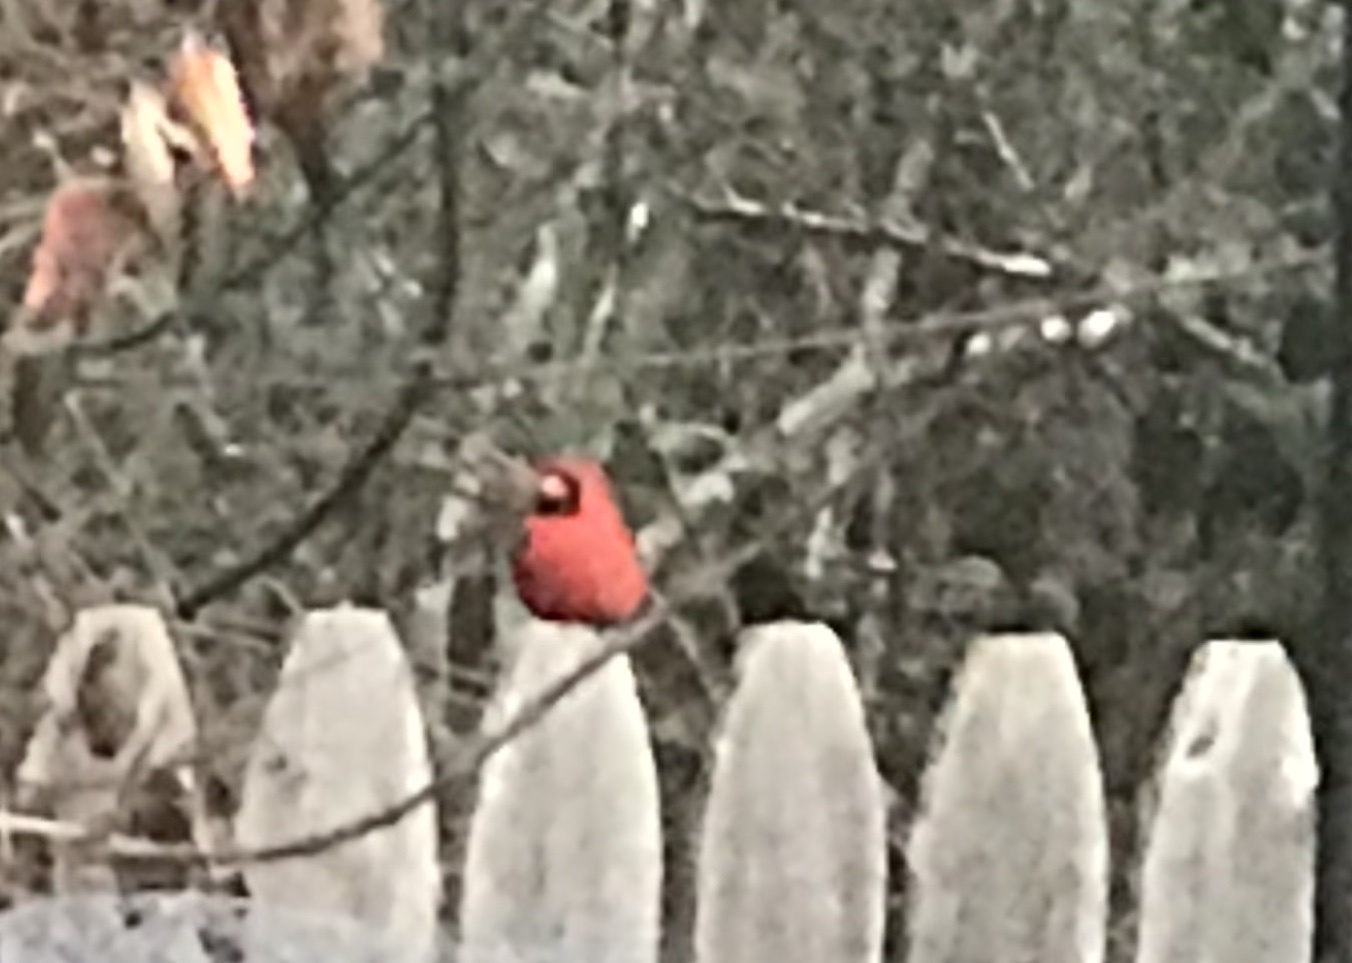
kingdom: Animalia
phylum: Chordata
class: Aves
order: Passeriformes
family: Cardinalidae
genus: Cardinalis
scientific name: Cardinalis cardinalis
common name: Northern cardinal
